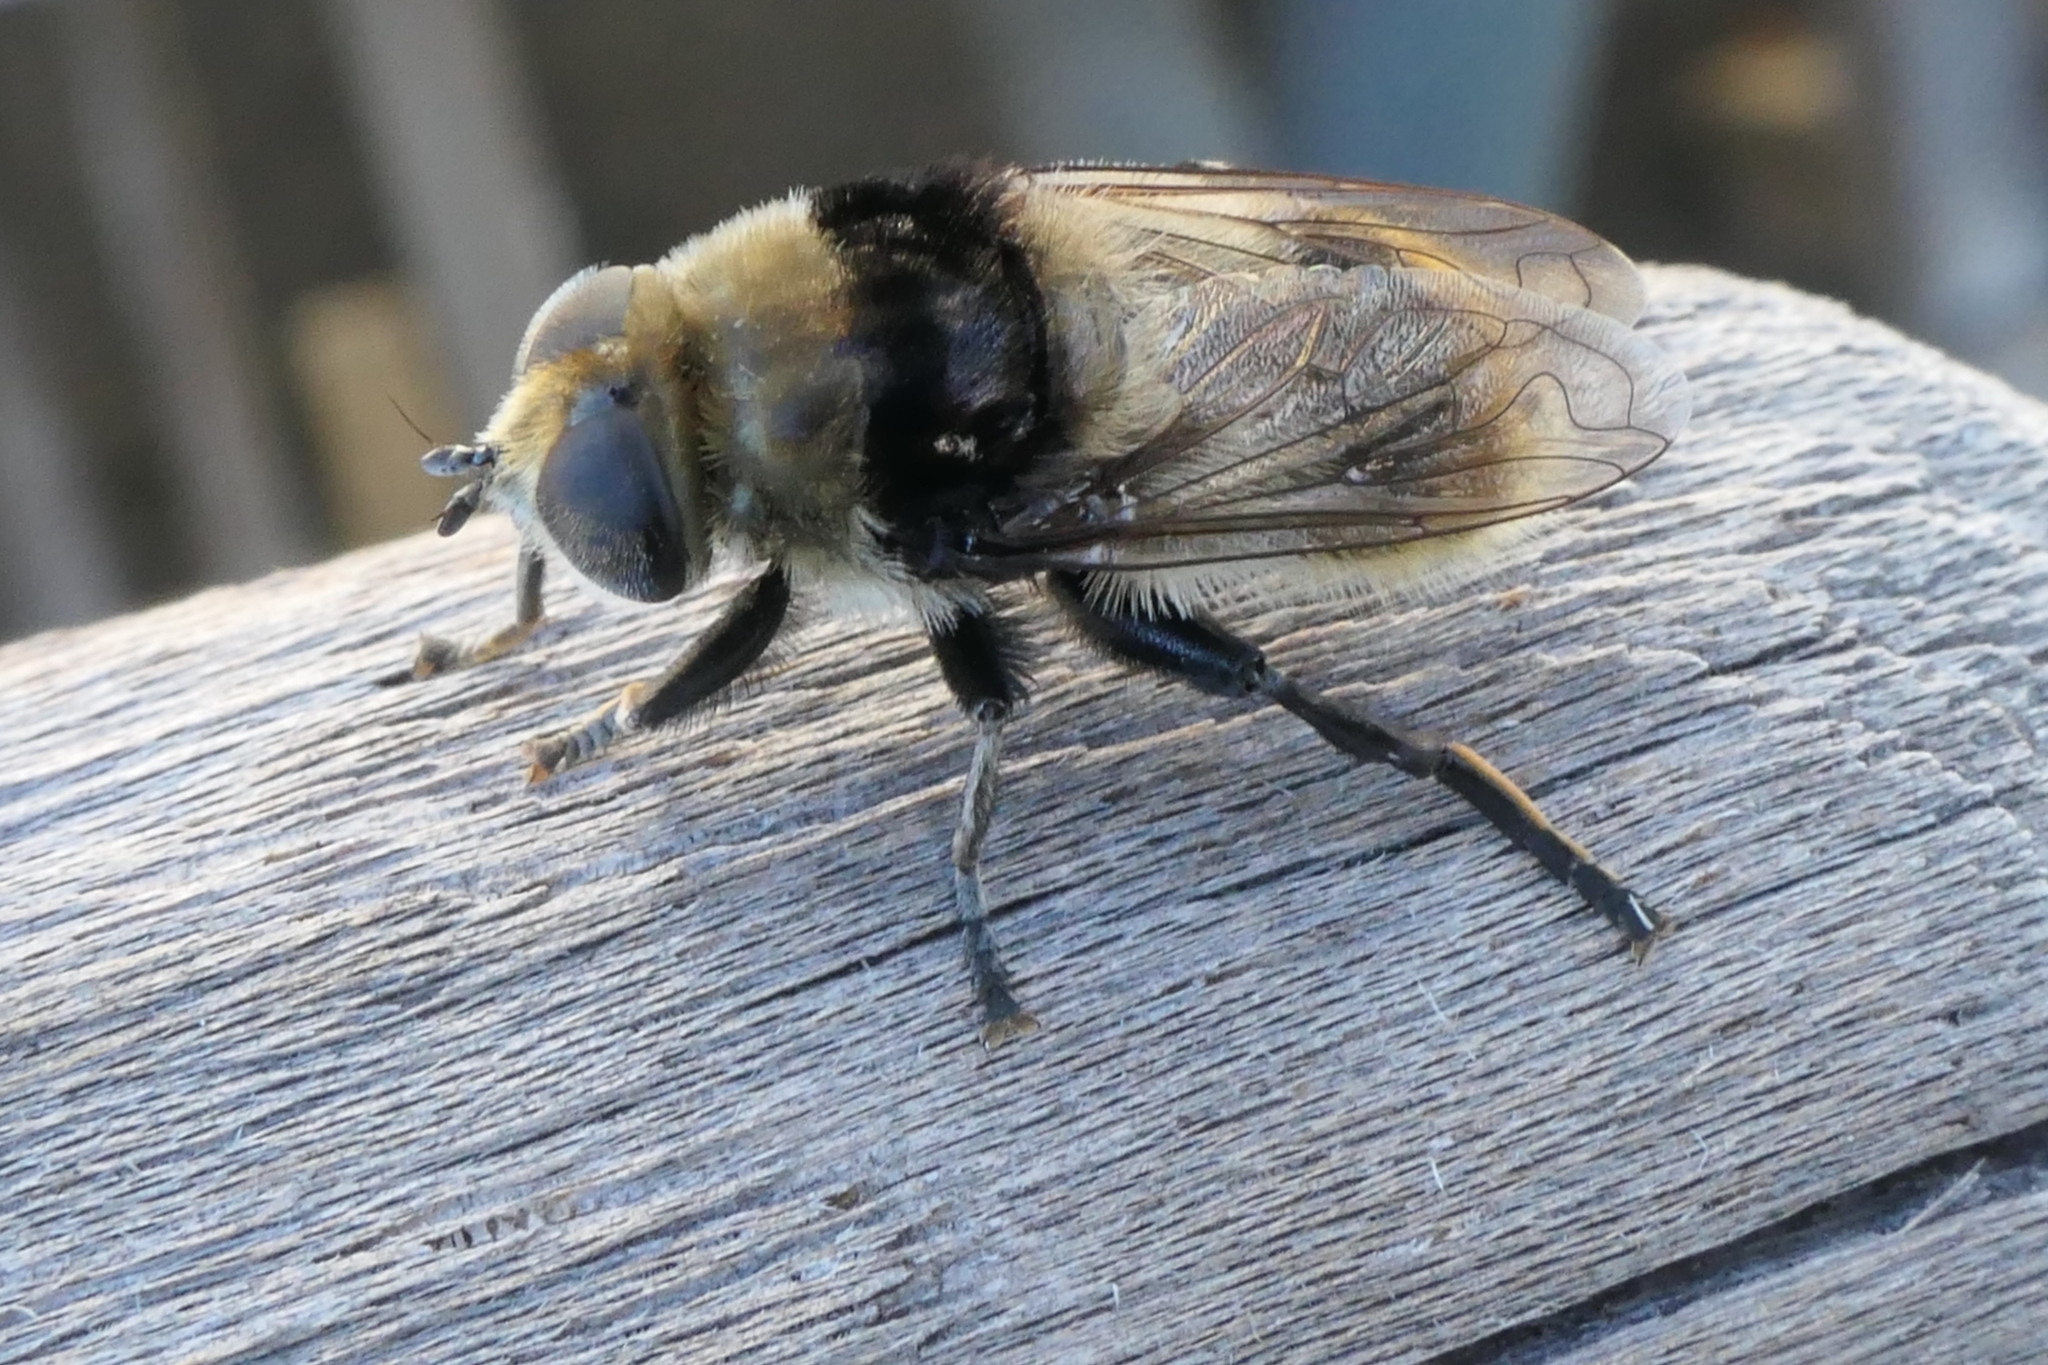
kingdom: Animalia
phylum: Arthropoda
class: Insecta
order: Diptera
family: Syrphidae
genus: Merodon
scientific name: Merodon equestris
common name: Greater bulb-fly
